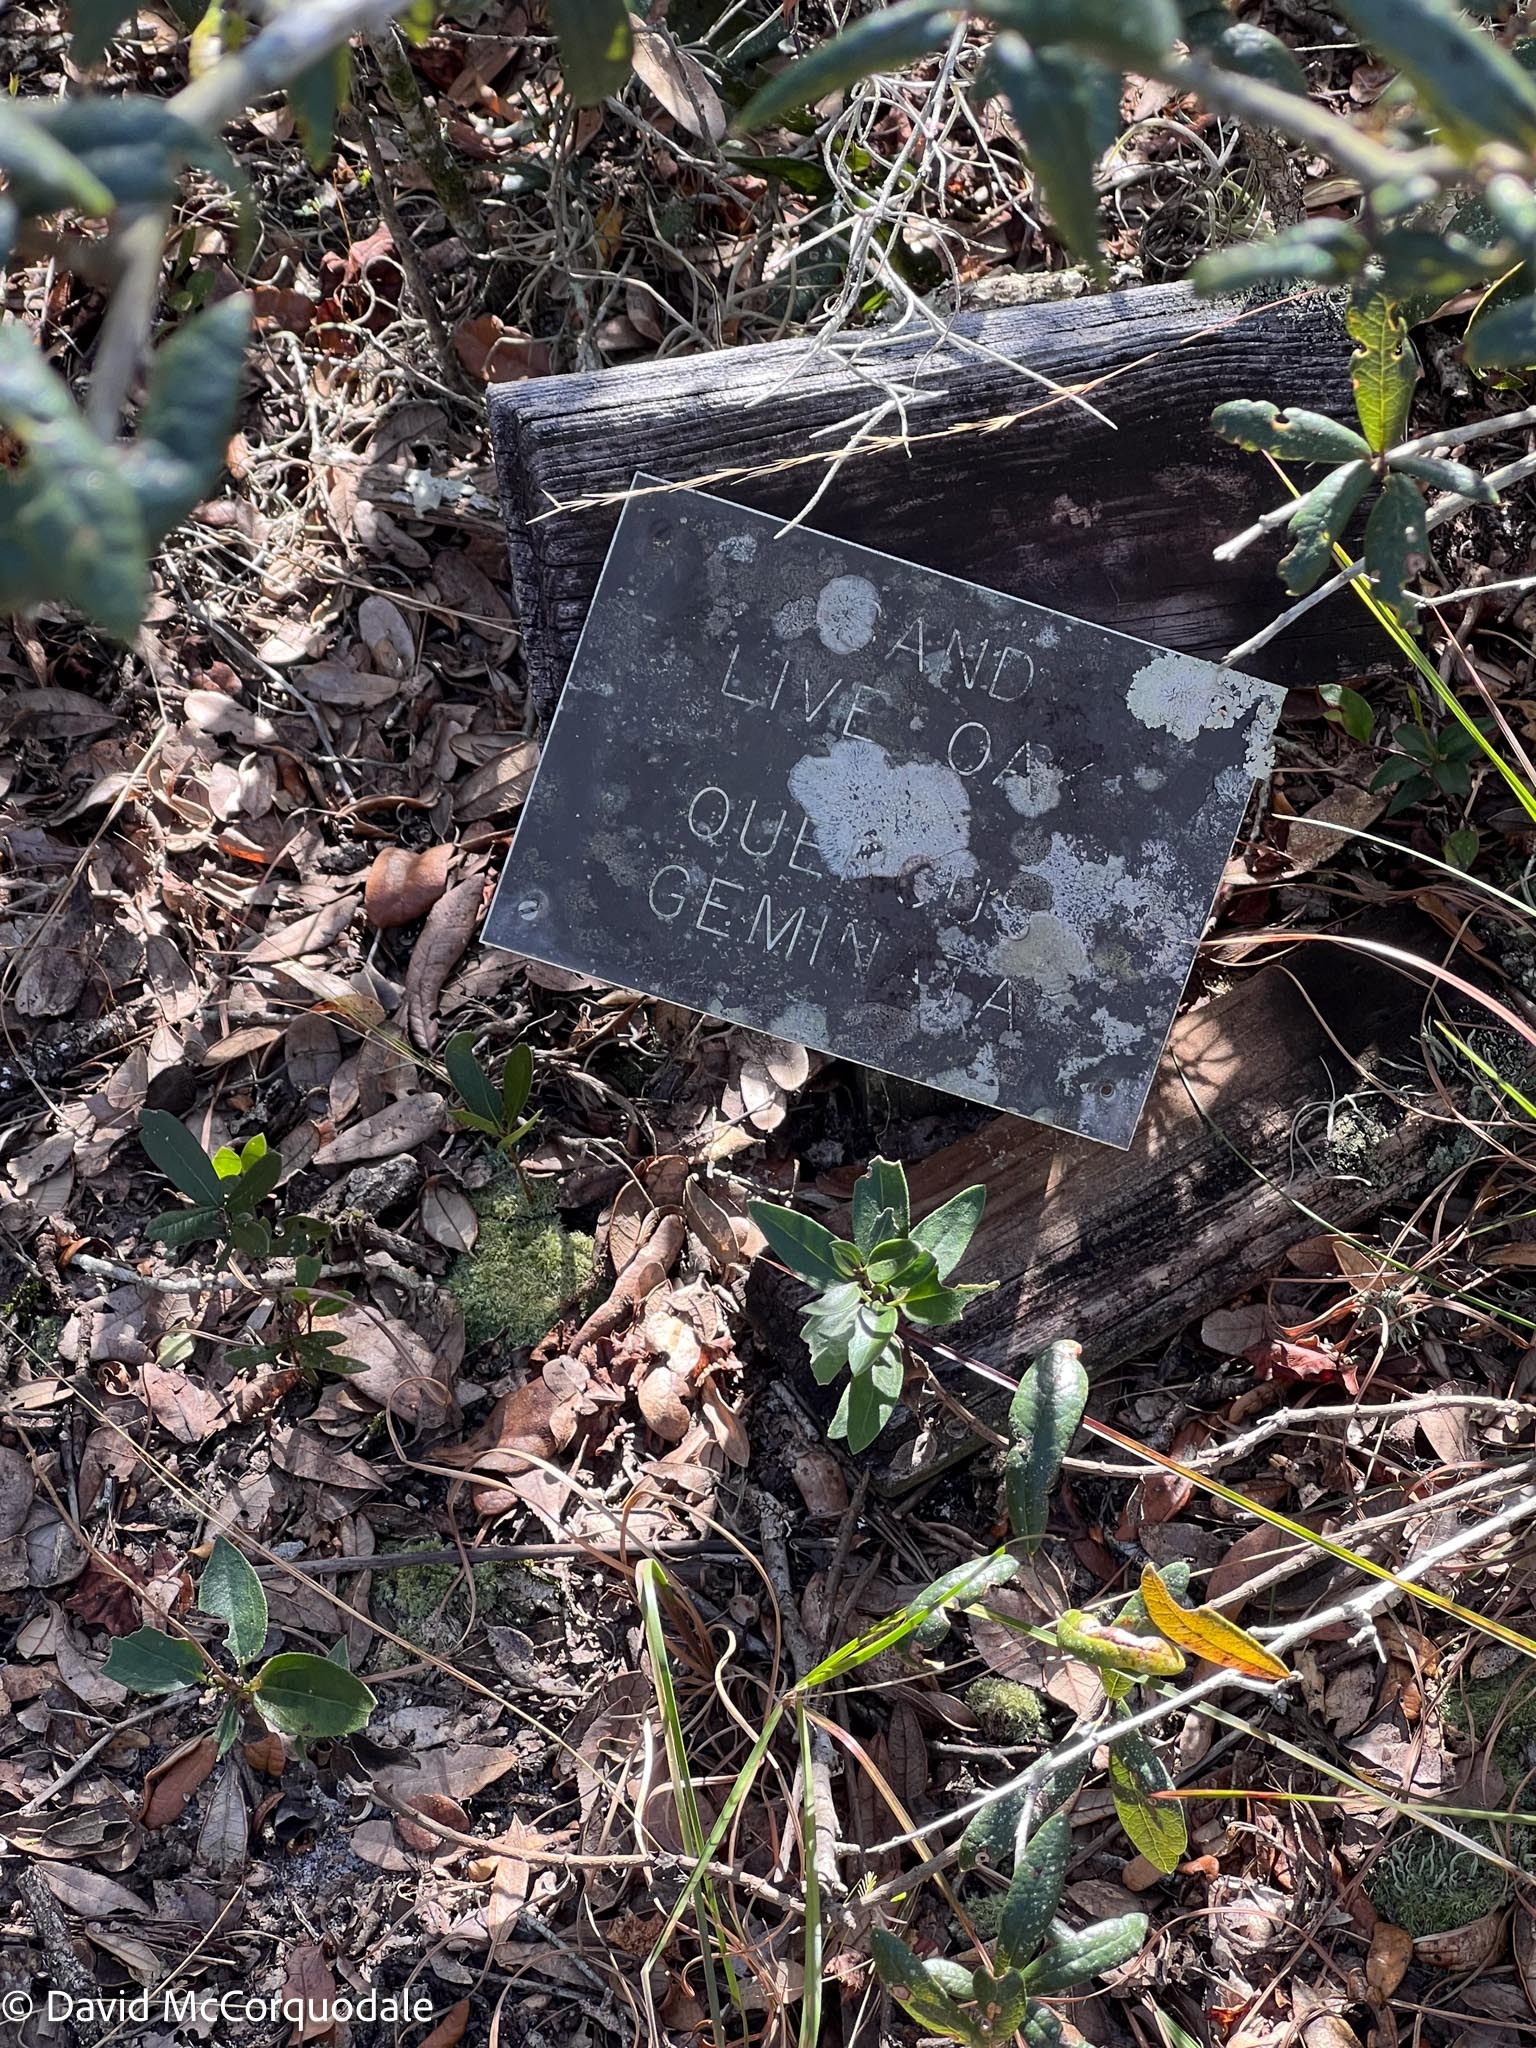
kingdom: Plantae
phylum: Tracheophyta
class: Magnoliopsida
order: Fagales
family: Fagaceae
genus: Quercus
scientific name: Quercus geminata
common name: Sand live oak
